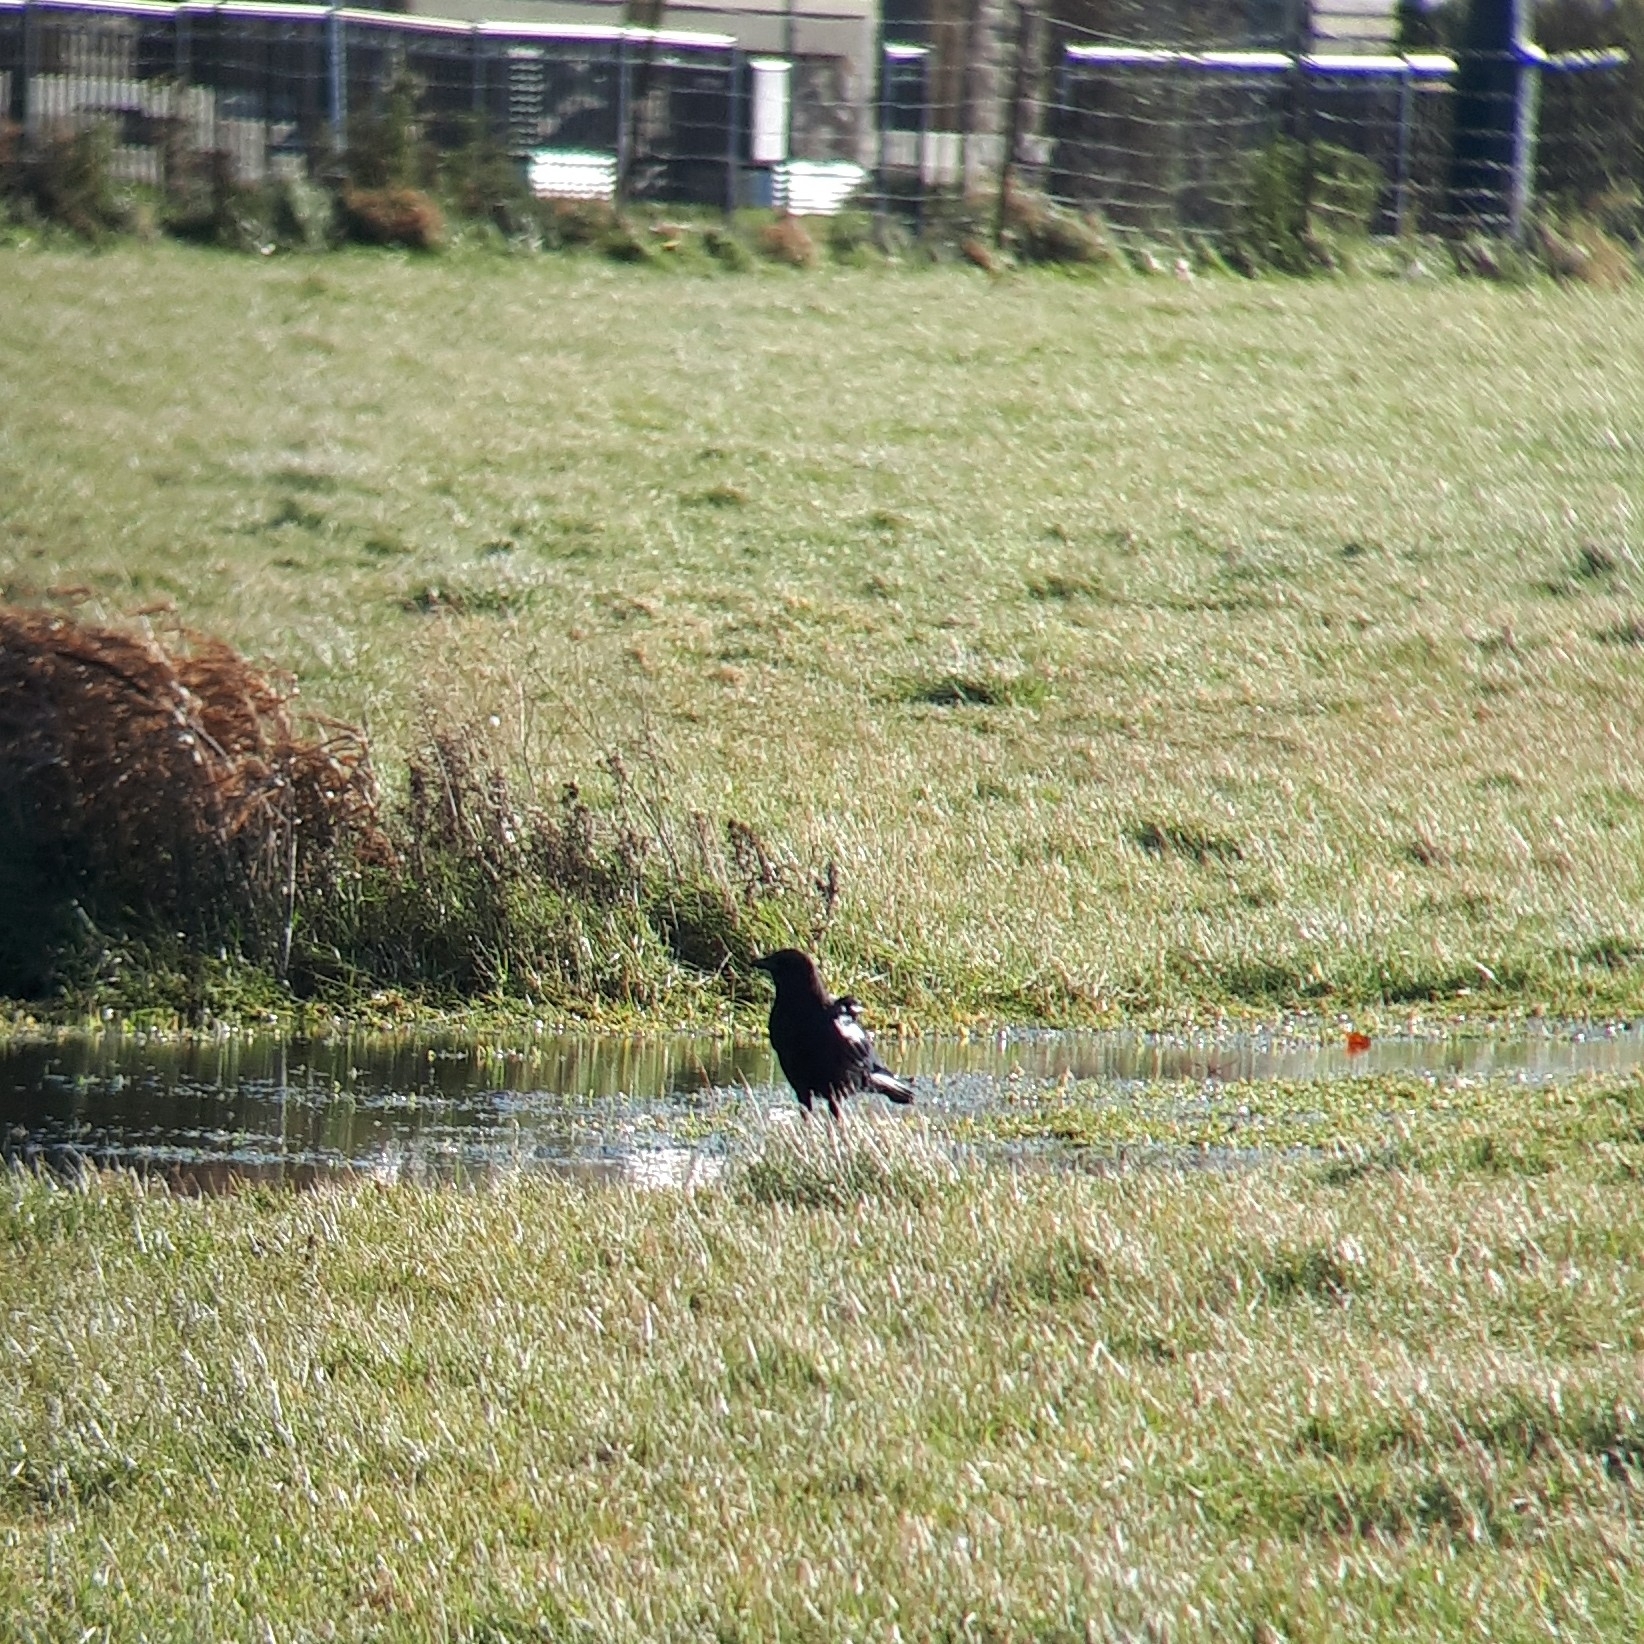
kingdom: Animalia
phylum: Chordata
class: Aves
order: Passeriformes
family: Corvidae
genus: Corvus
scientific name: Corvus brachyrhynchos
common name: American crow
